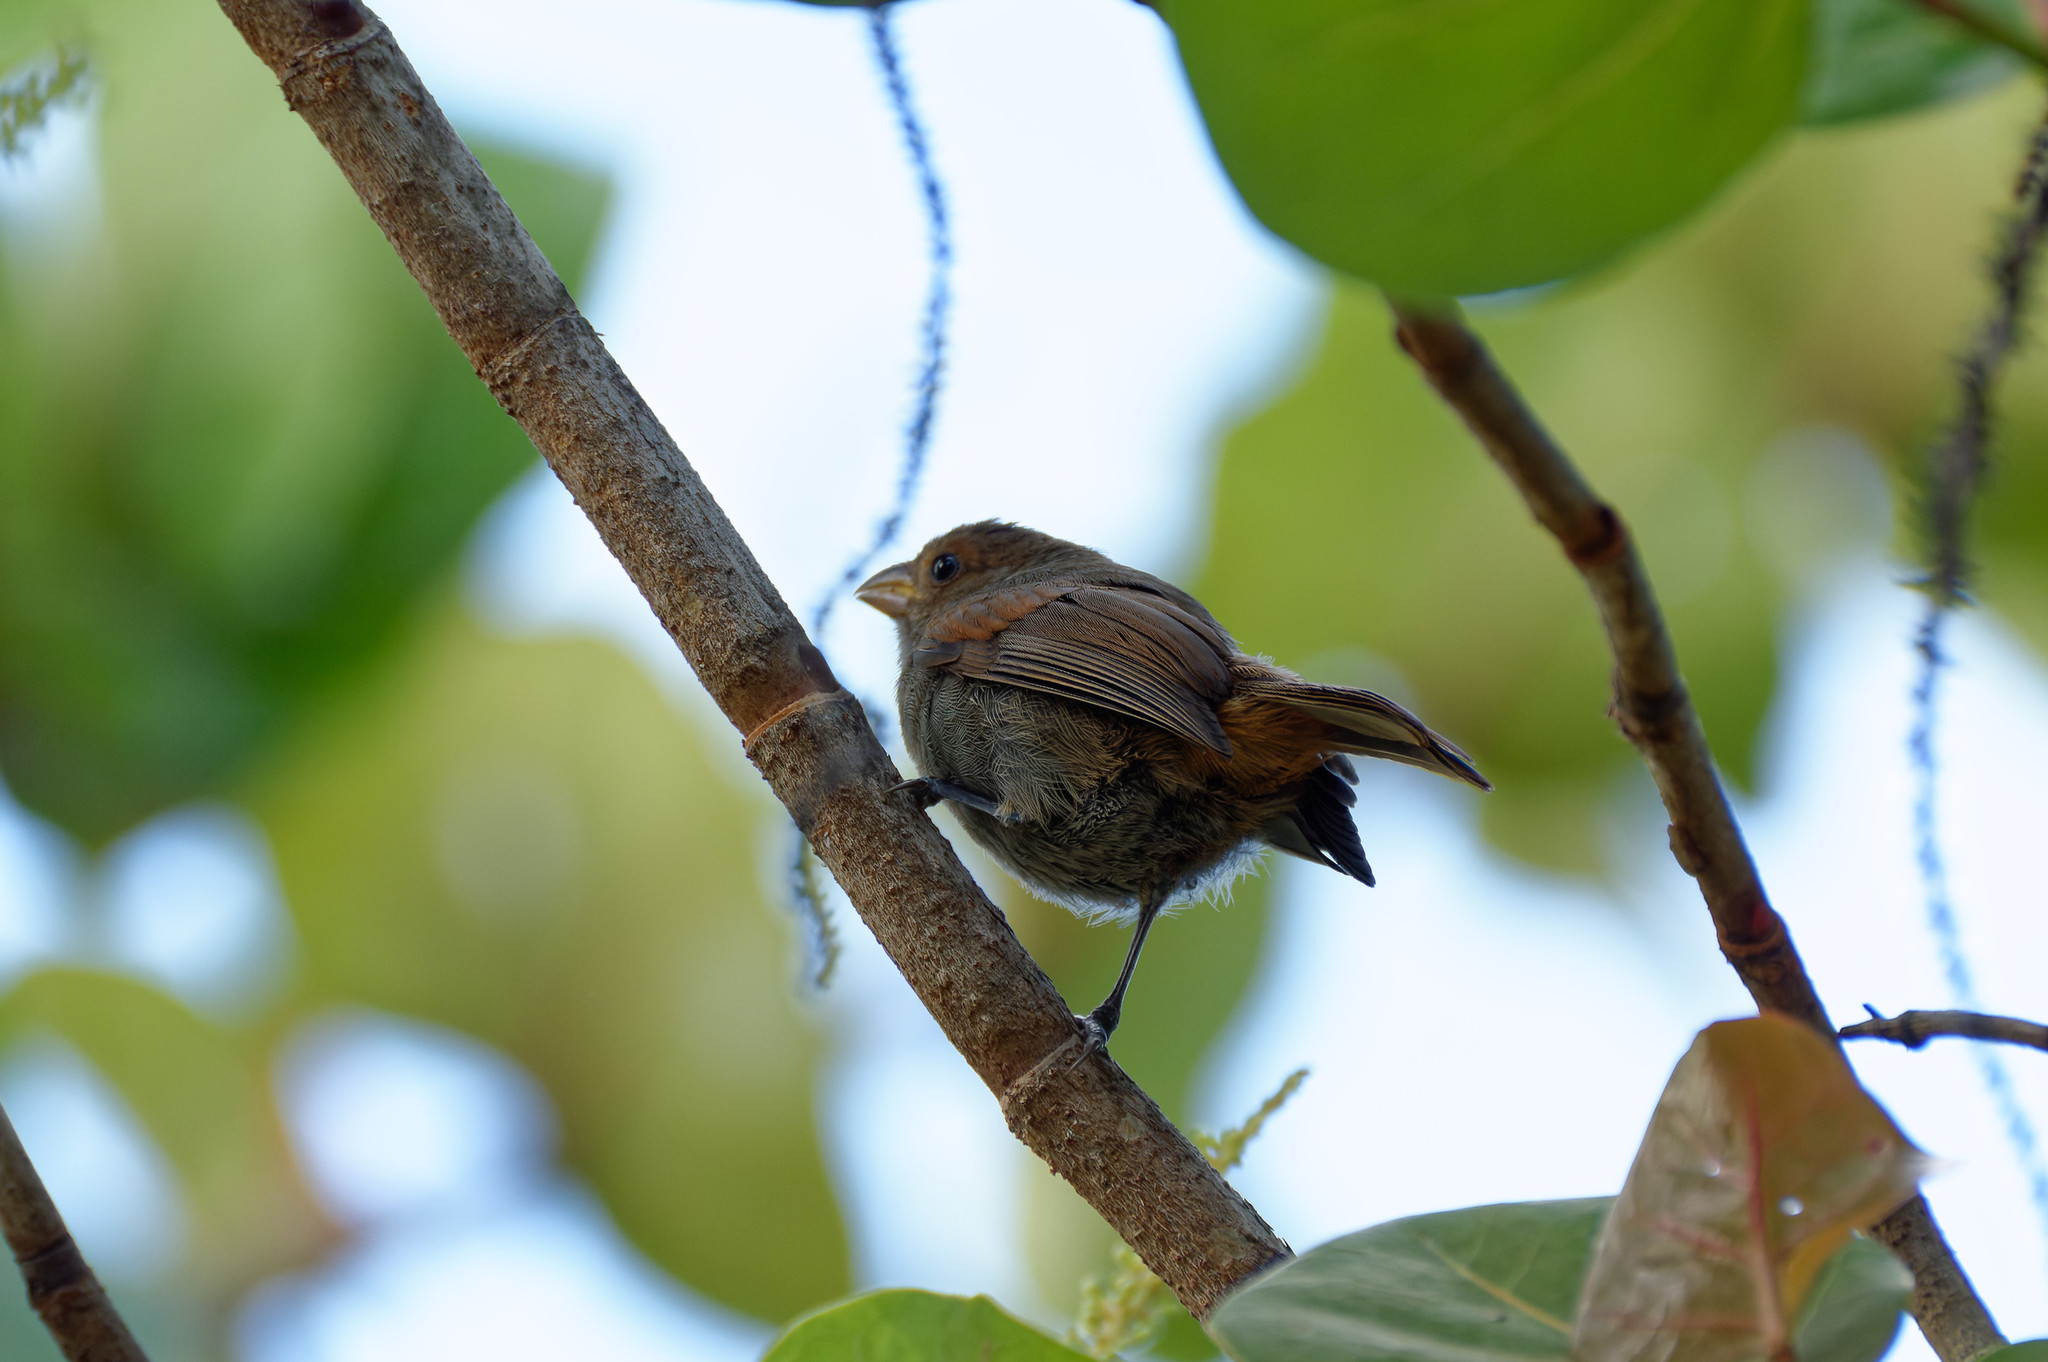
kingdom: Animalia
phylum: Chordata
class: Aves
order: Passeriformes
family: Thraupidae
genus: Loxigilla
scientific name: Loxigilla noctis
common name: Lesser antillean bullfinch
